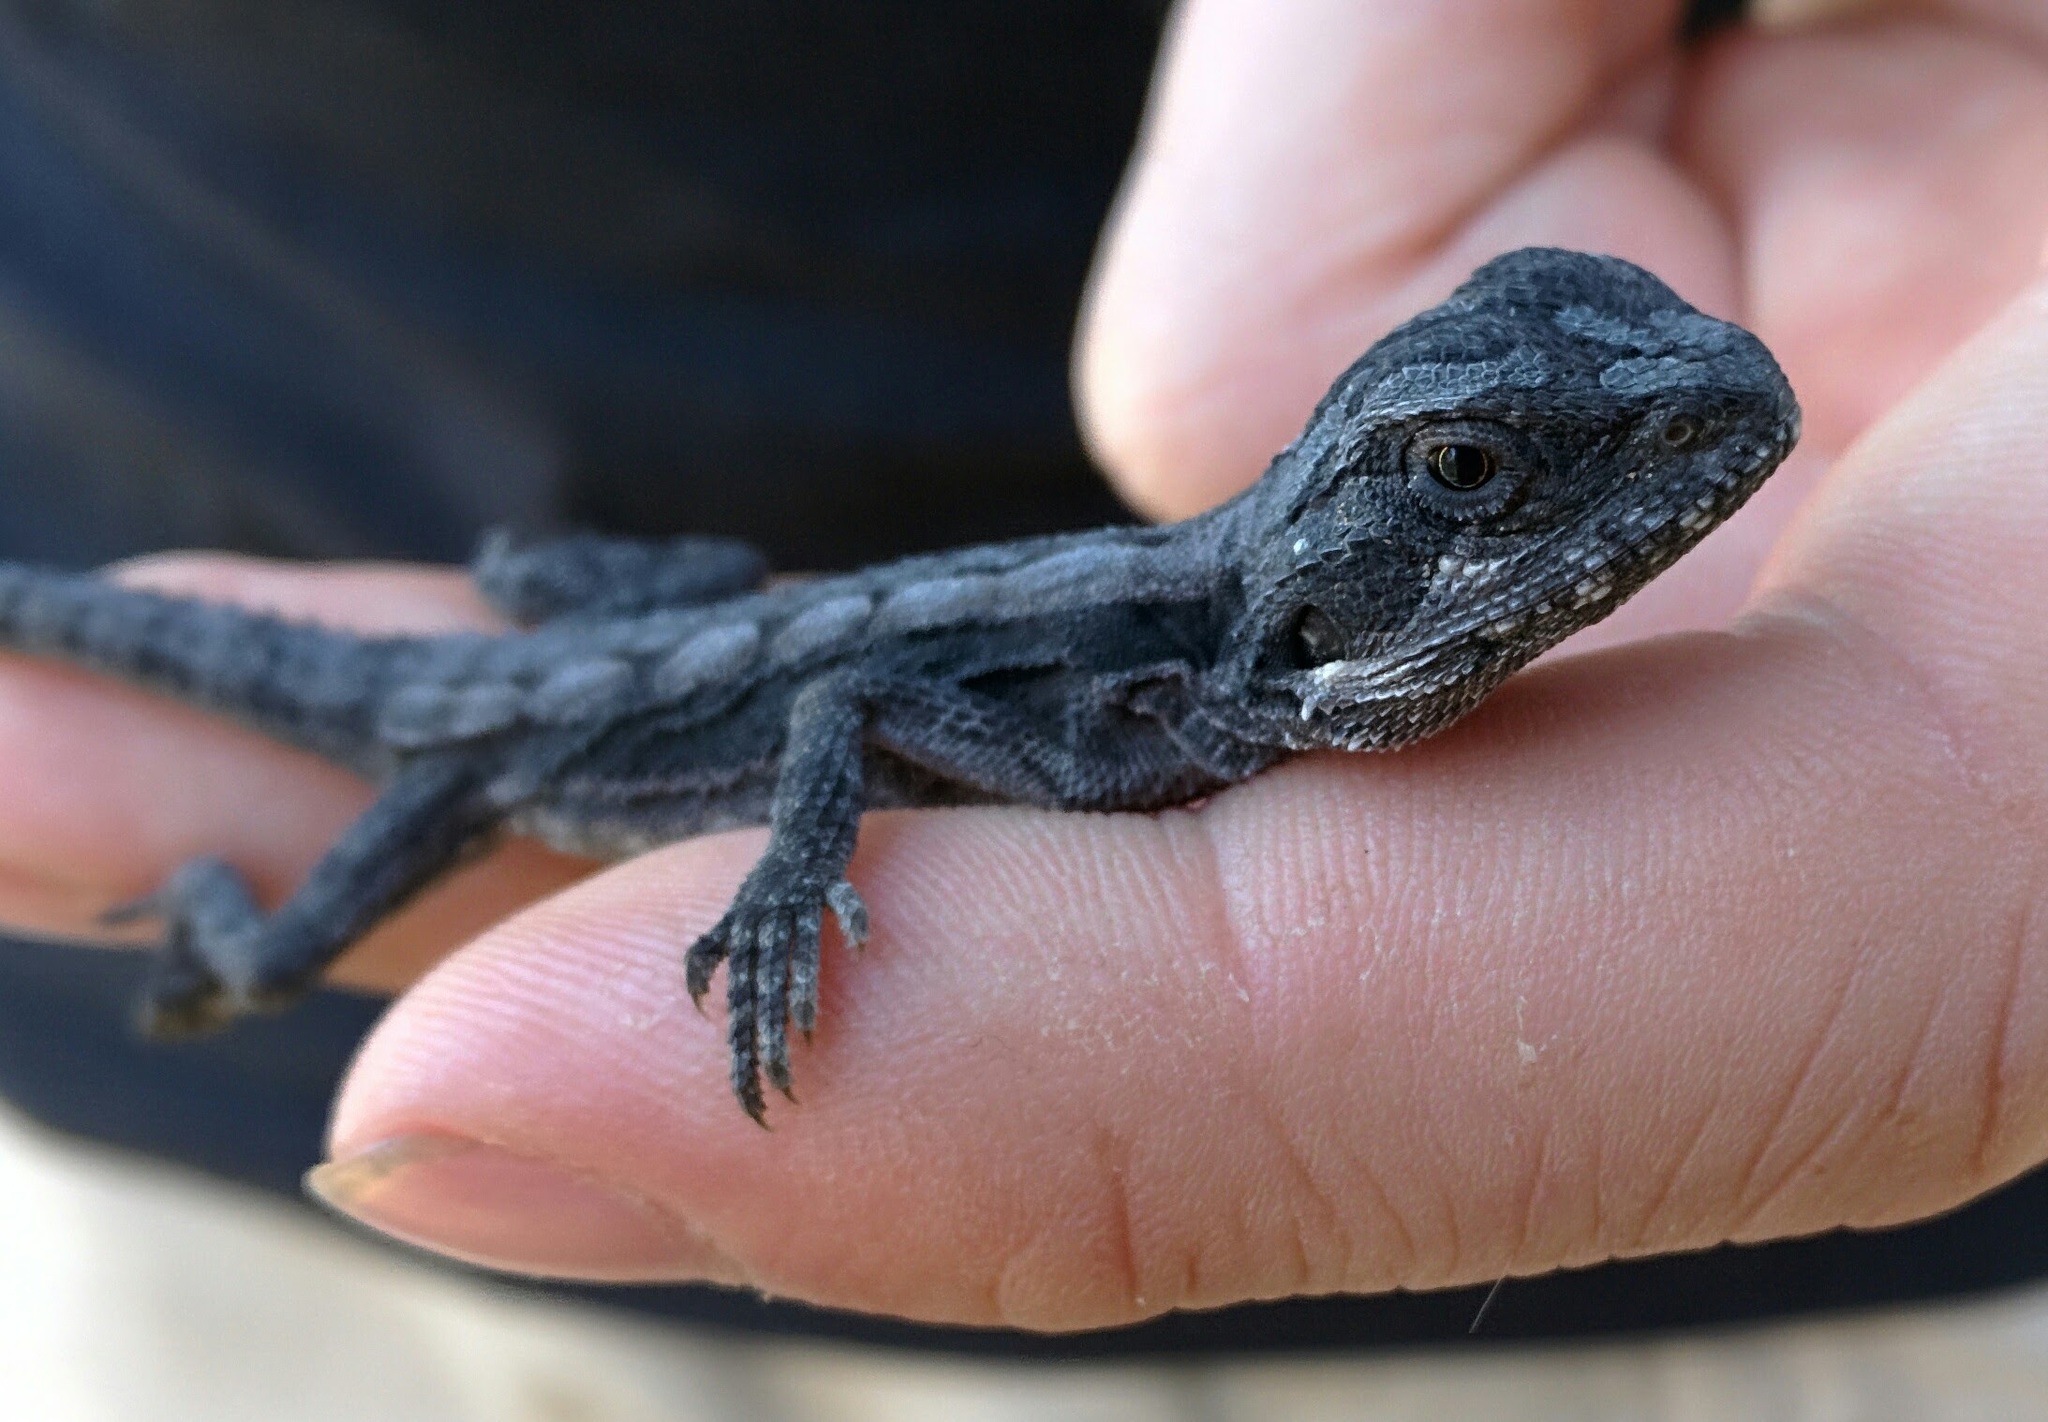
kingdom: Animalia
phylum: Chordata
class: Squamata
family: Agamidae
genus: Pogona
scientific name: Pogona barbata
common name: Bearded dragon
